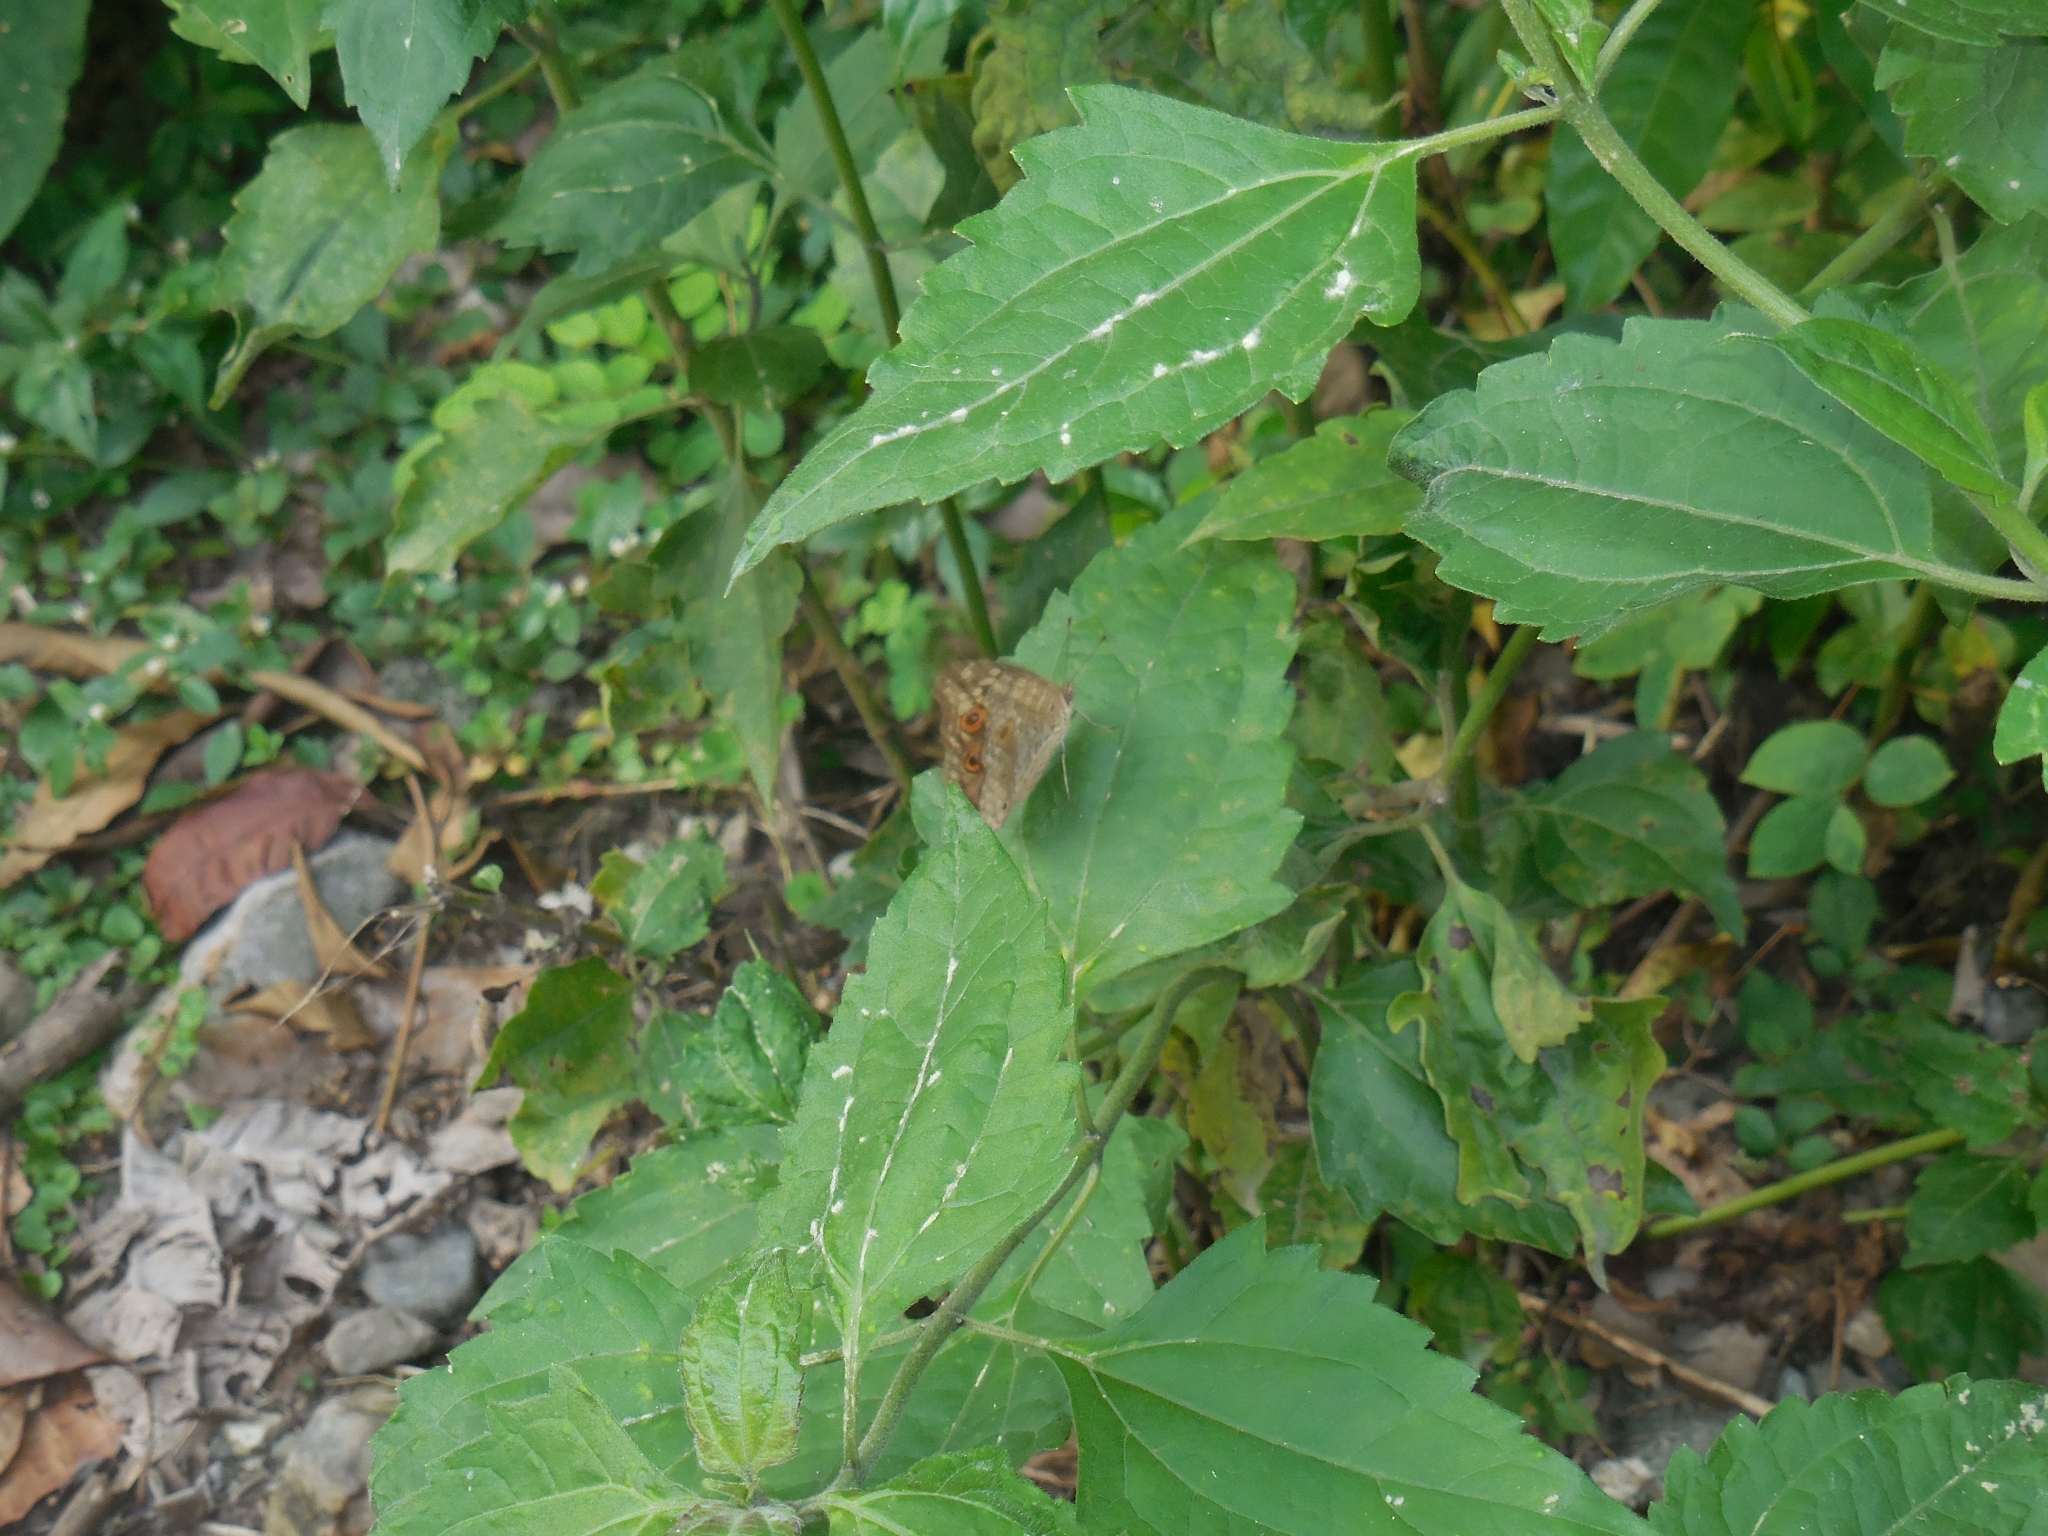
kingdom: Animalia
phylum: Arthropoda
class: Insecta
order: Lepidoptera
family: Nymphalidae
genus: Junonia
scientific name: Junonia lemonias
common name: Lemon pansy
